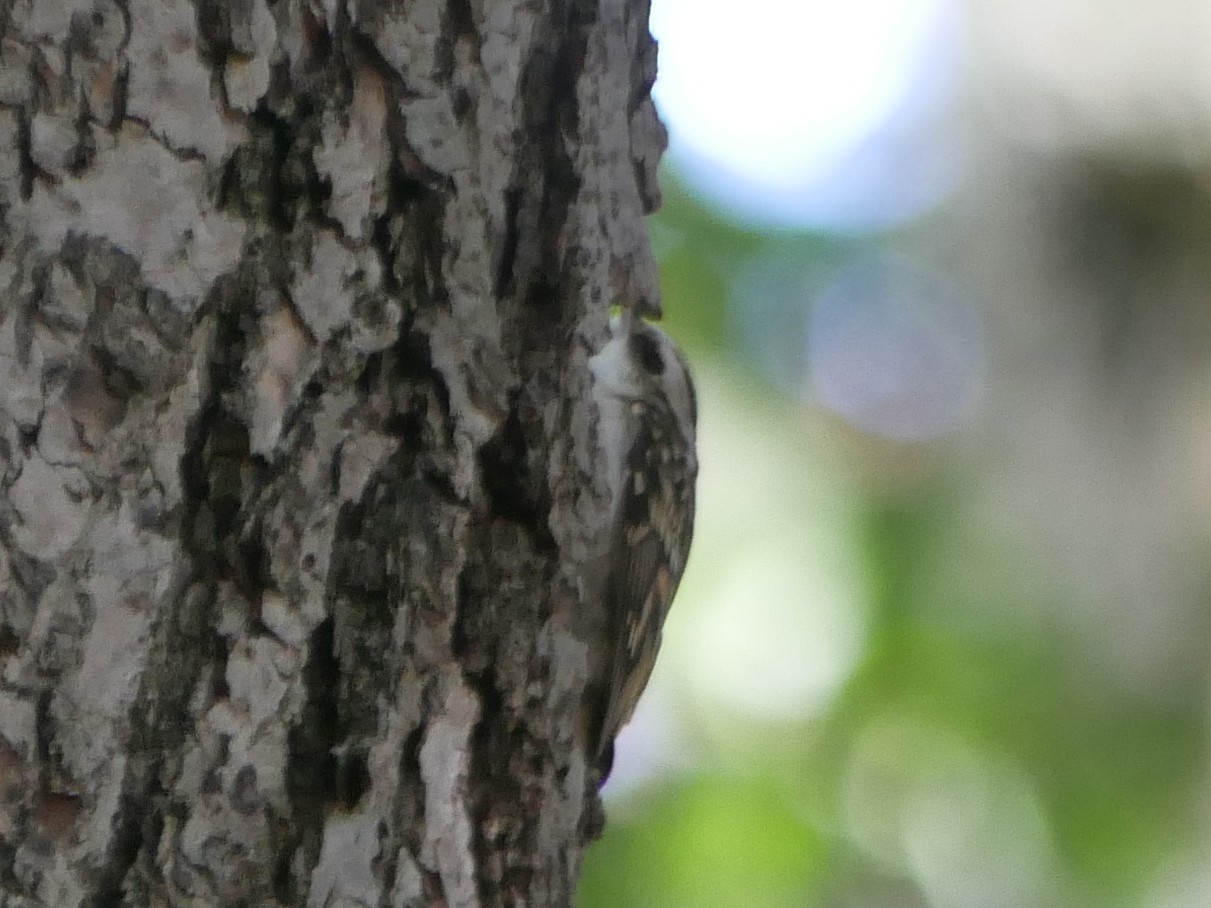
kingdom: Animalia
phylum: Chordata
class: Aves
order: Passeriformes
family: Certhiidae
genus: Certhia
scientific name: Certhia familiaris
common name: Eurasian treecreeper
